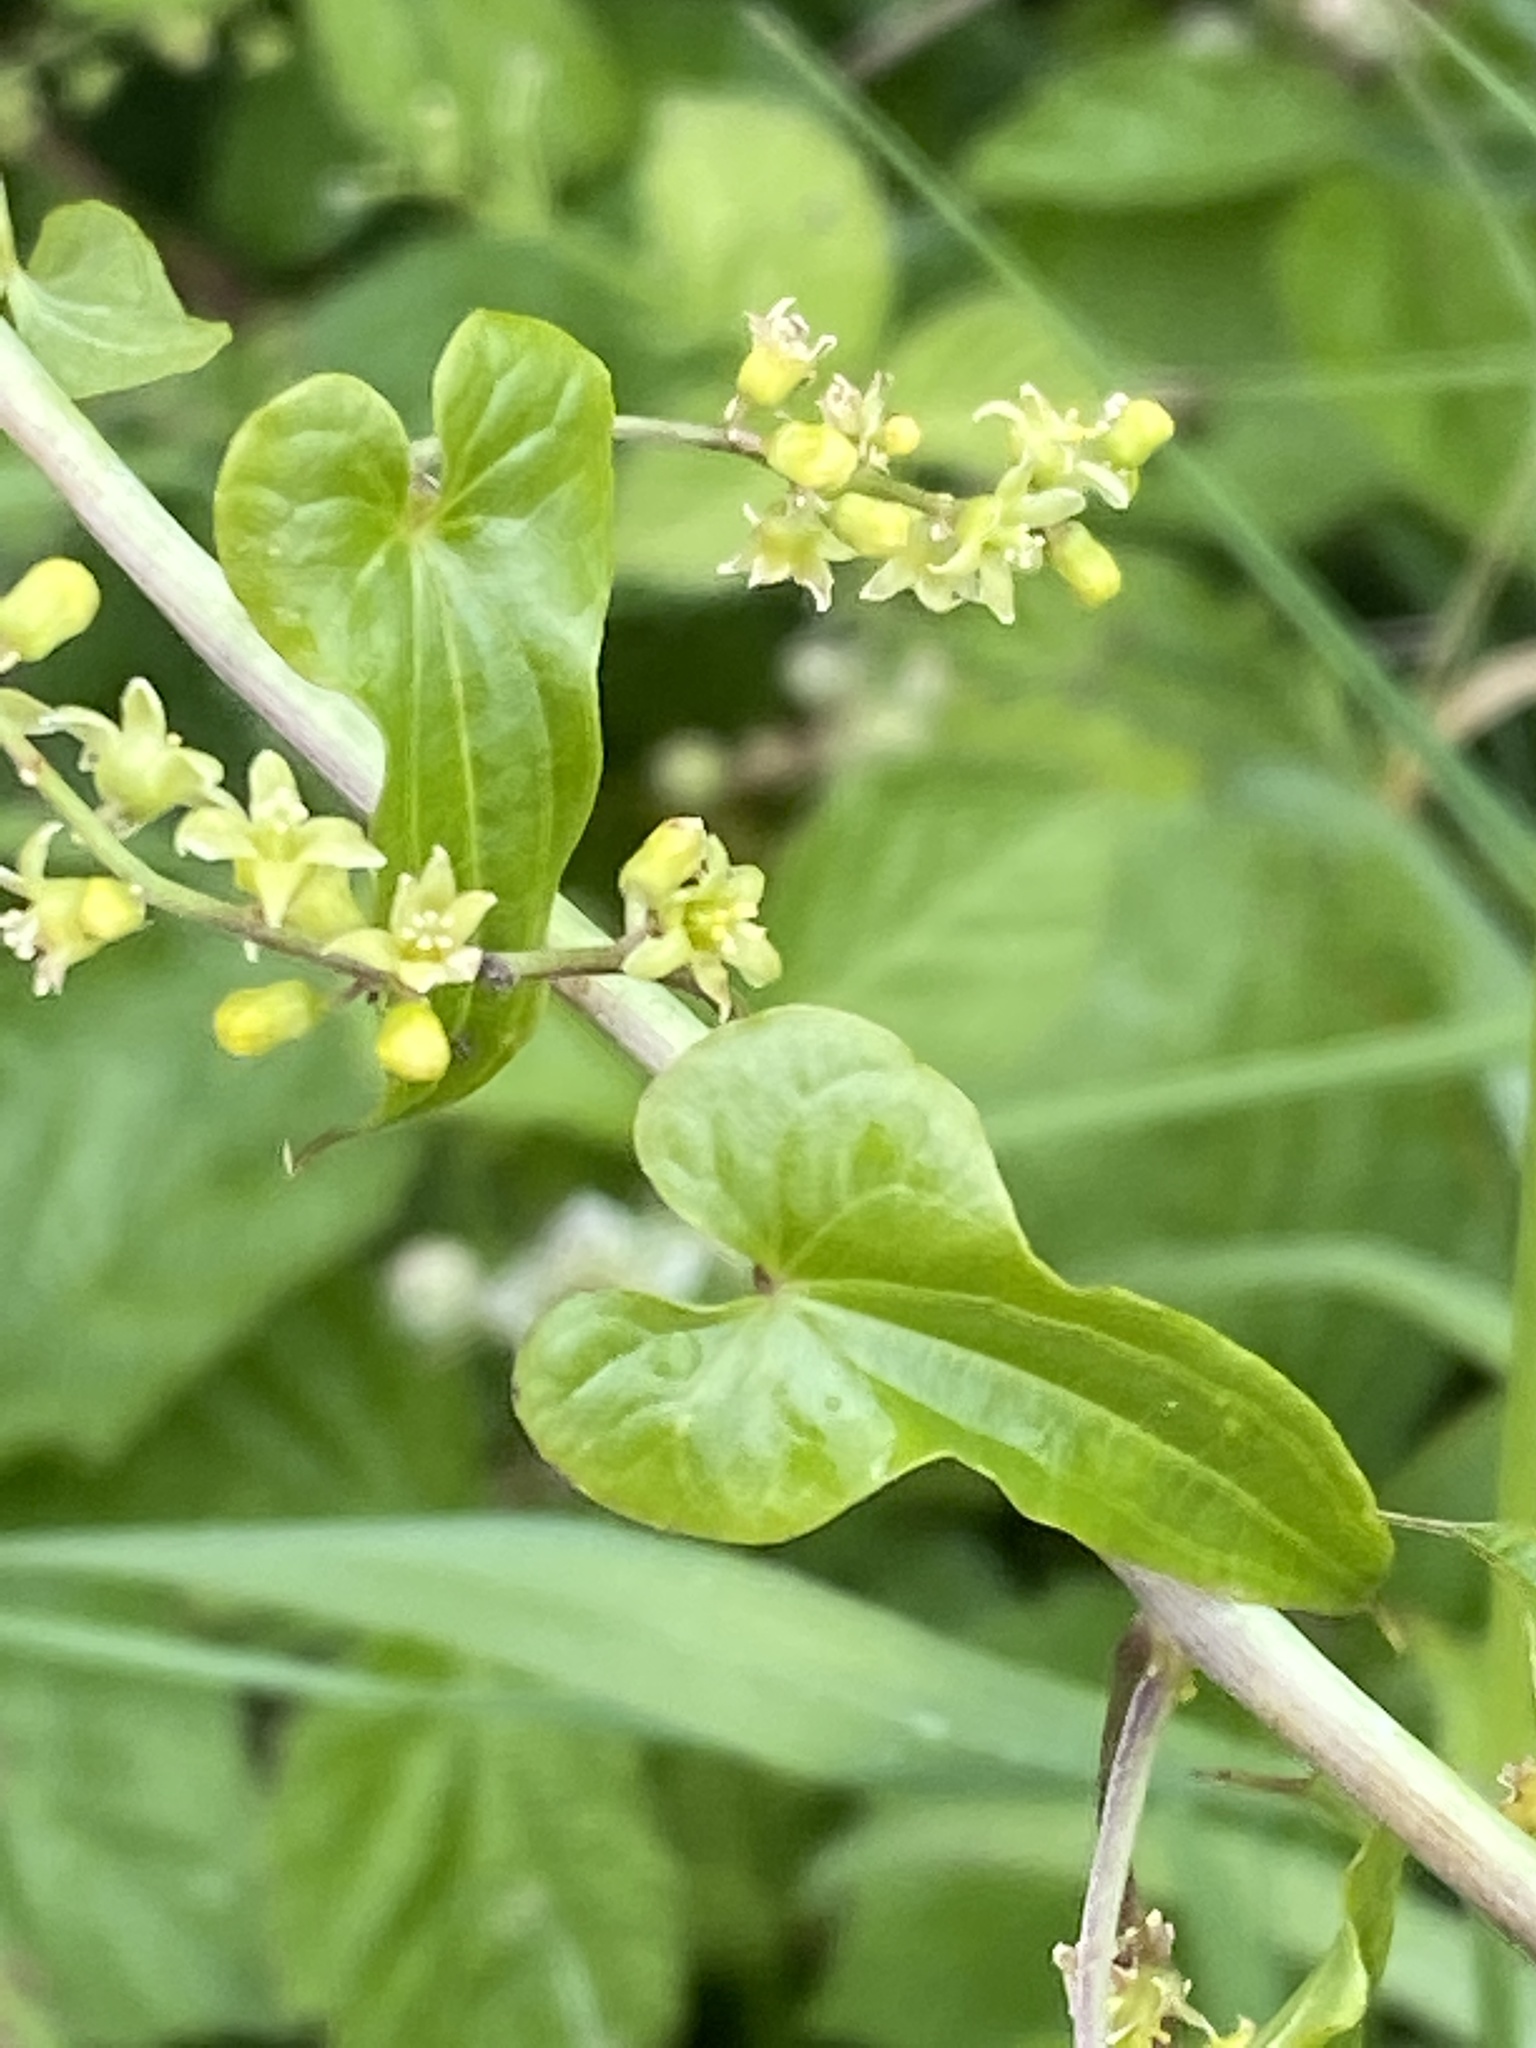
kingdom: Plantae
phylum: Tracheophyta
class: Liliopsida
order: Dioscoreales
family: Dioscoreaceae
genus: Dioscorea
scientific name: Dioscorea communis
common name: Black-bindweed
